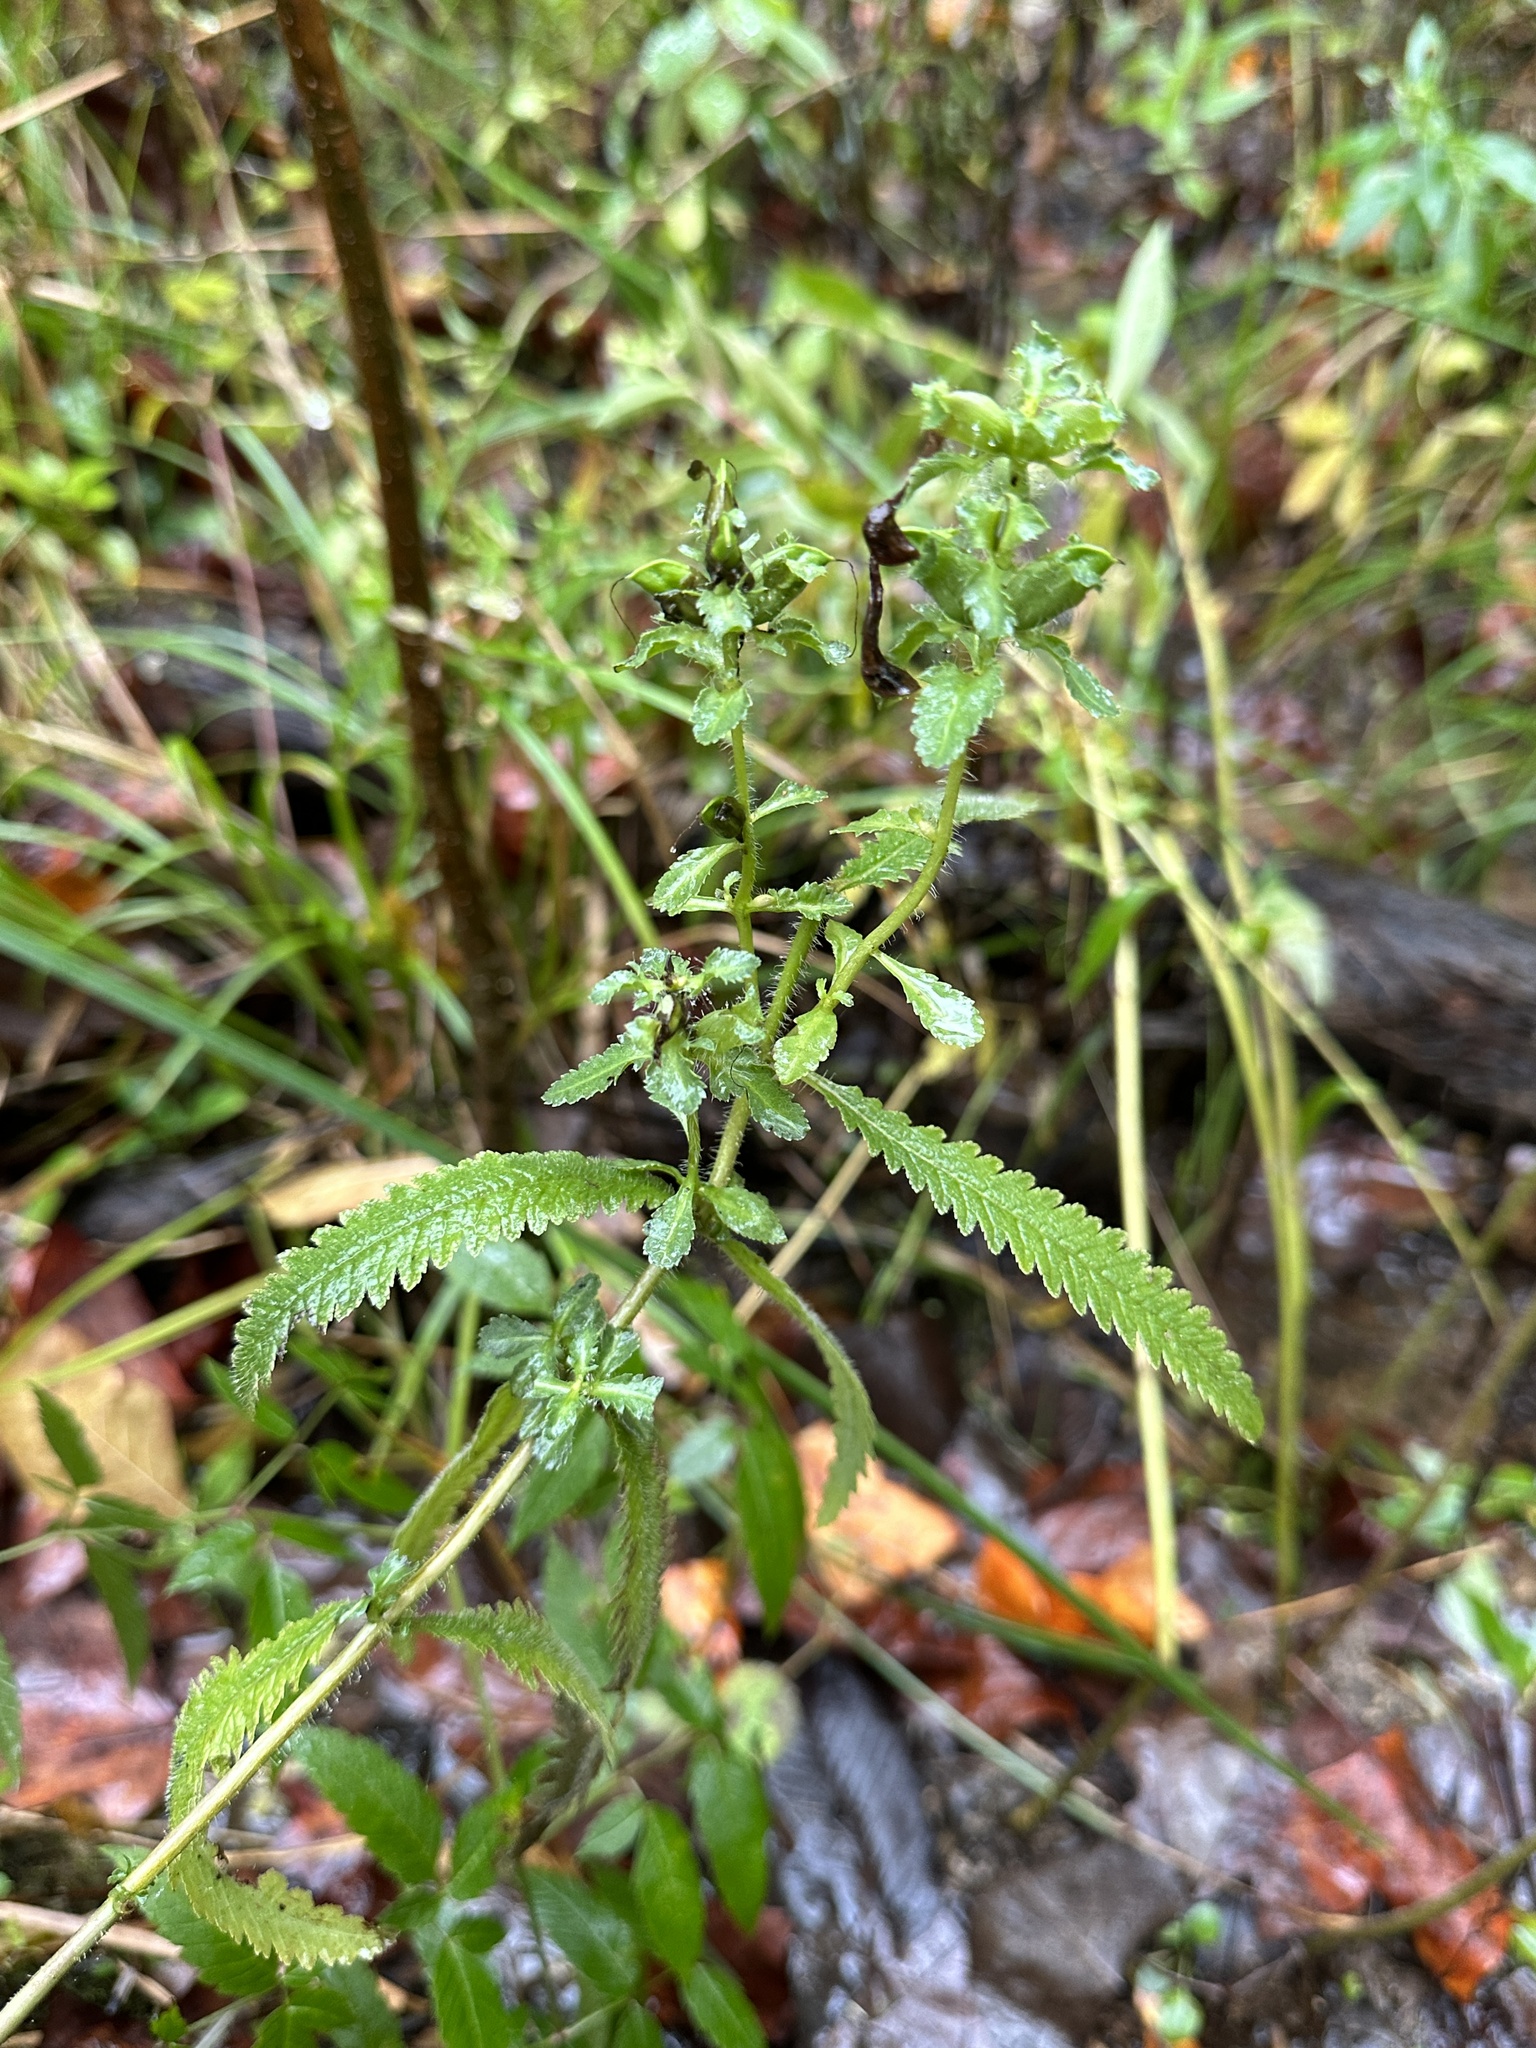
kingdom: Plantae
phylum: Tracheophyta
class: Magnoliopsida
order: Lamiales
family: Orobanchaceae
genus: Pedicularis
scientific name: Pedicularis lanceolata
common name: Swamp lousewort
